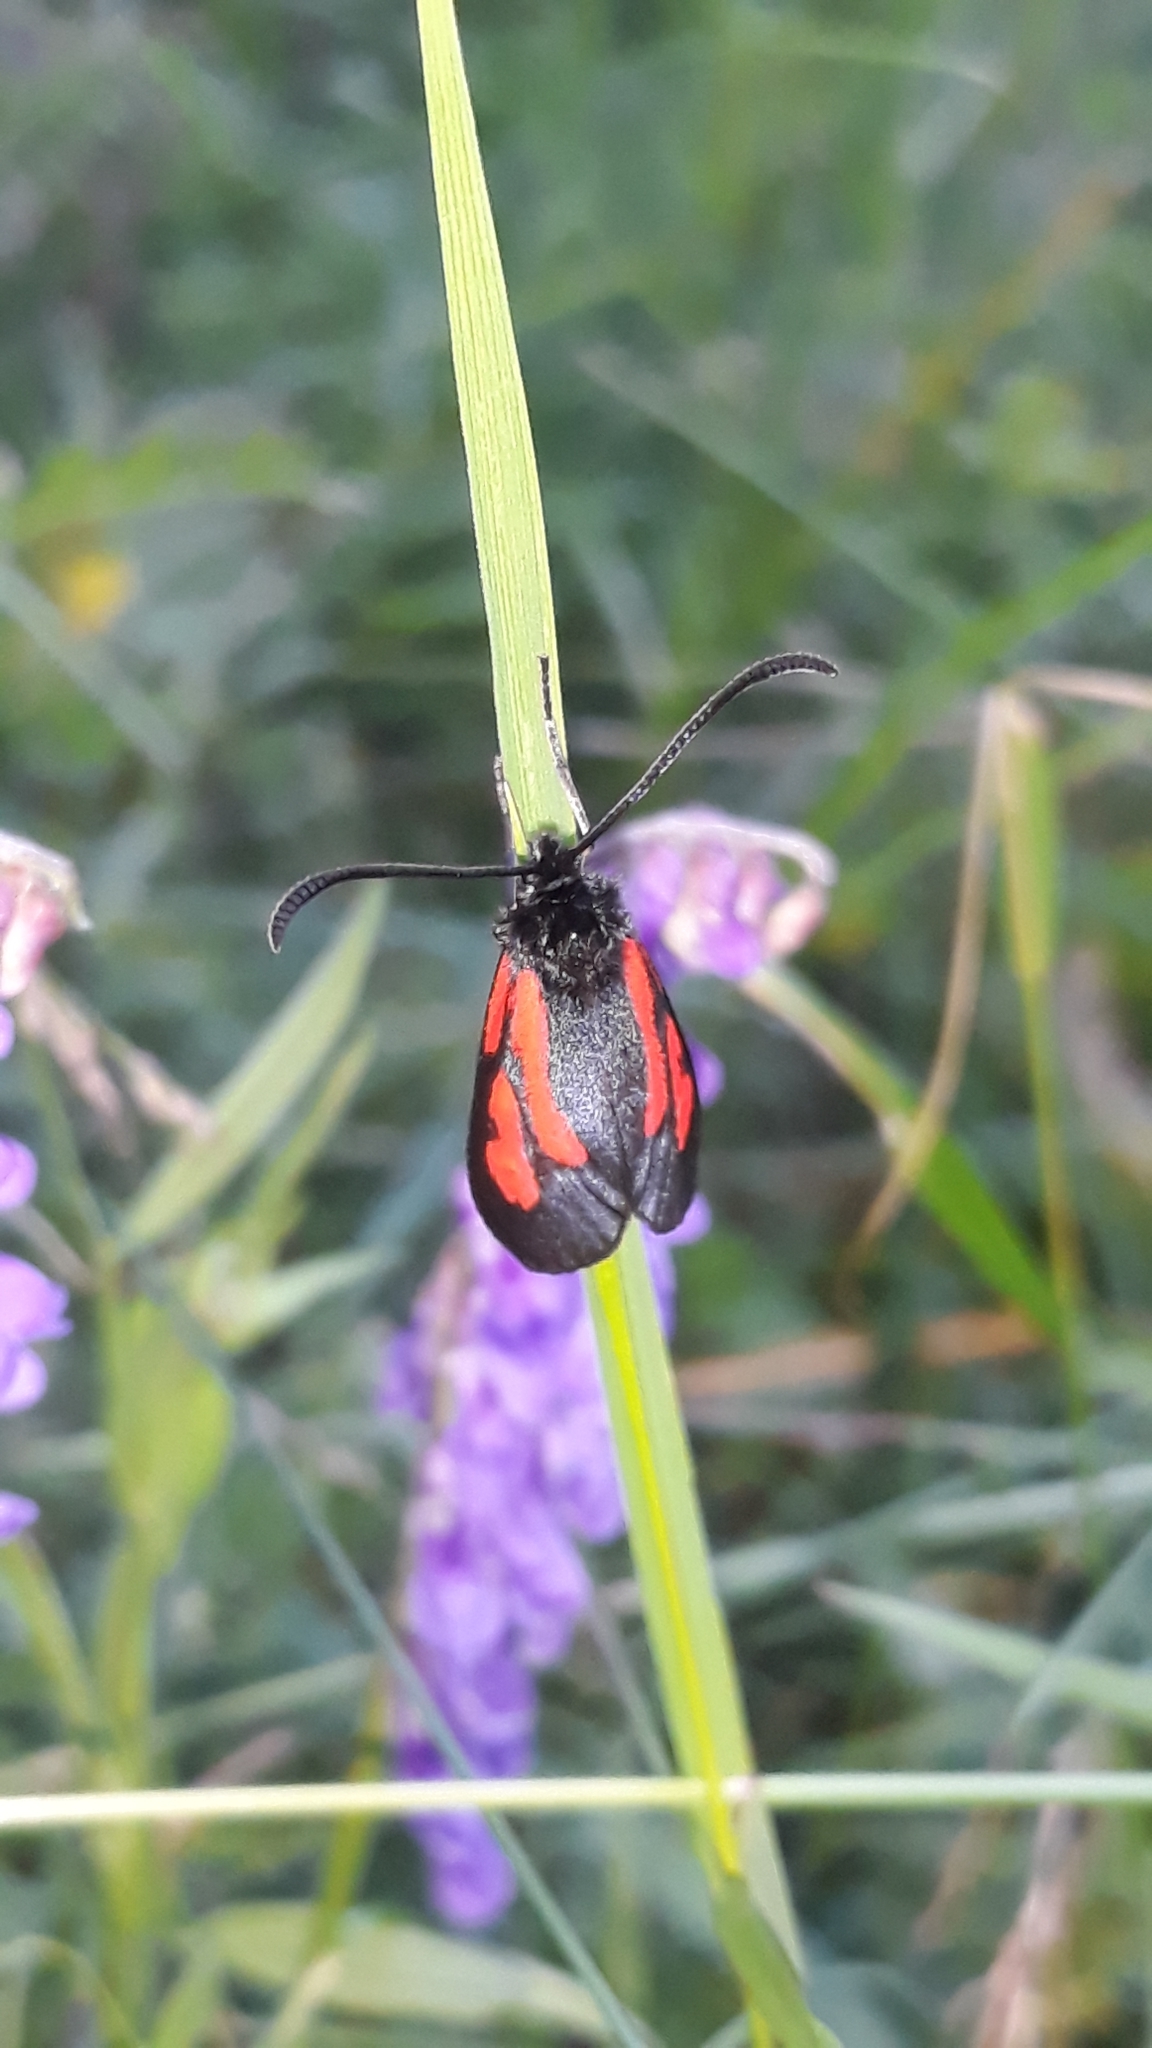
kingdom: Animalia
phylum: Arthropoda
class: Insecta
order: Lepidoptera
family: Zygaenidae
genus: Zygaena
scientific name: Zygaena osterodensis
